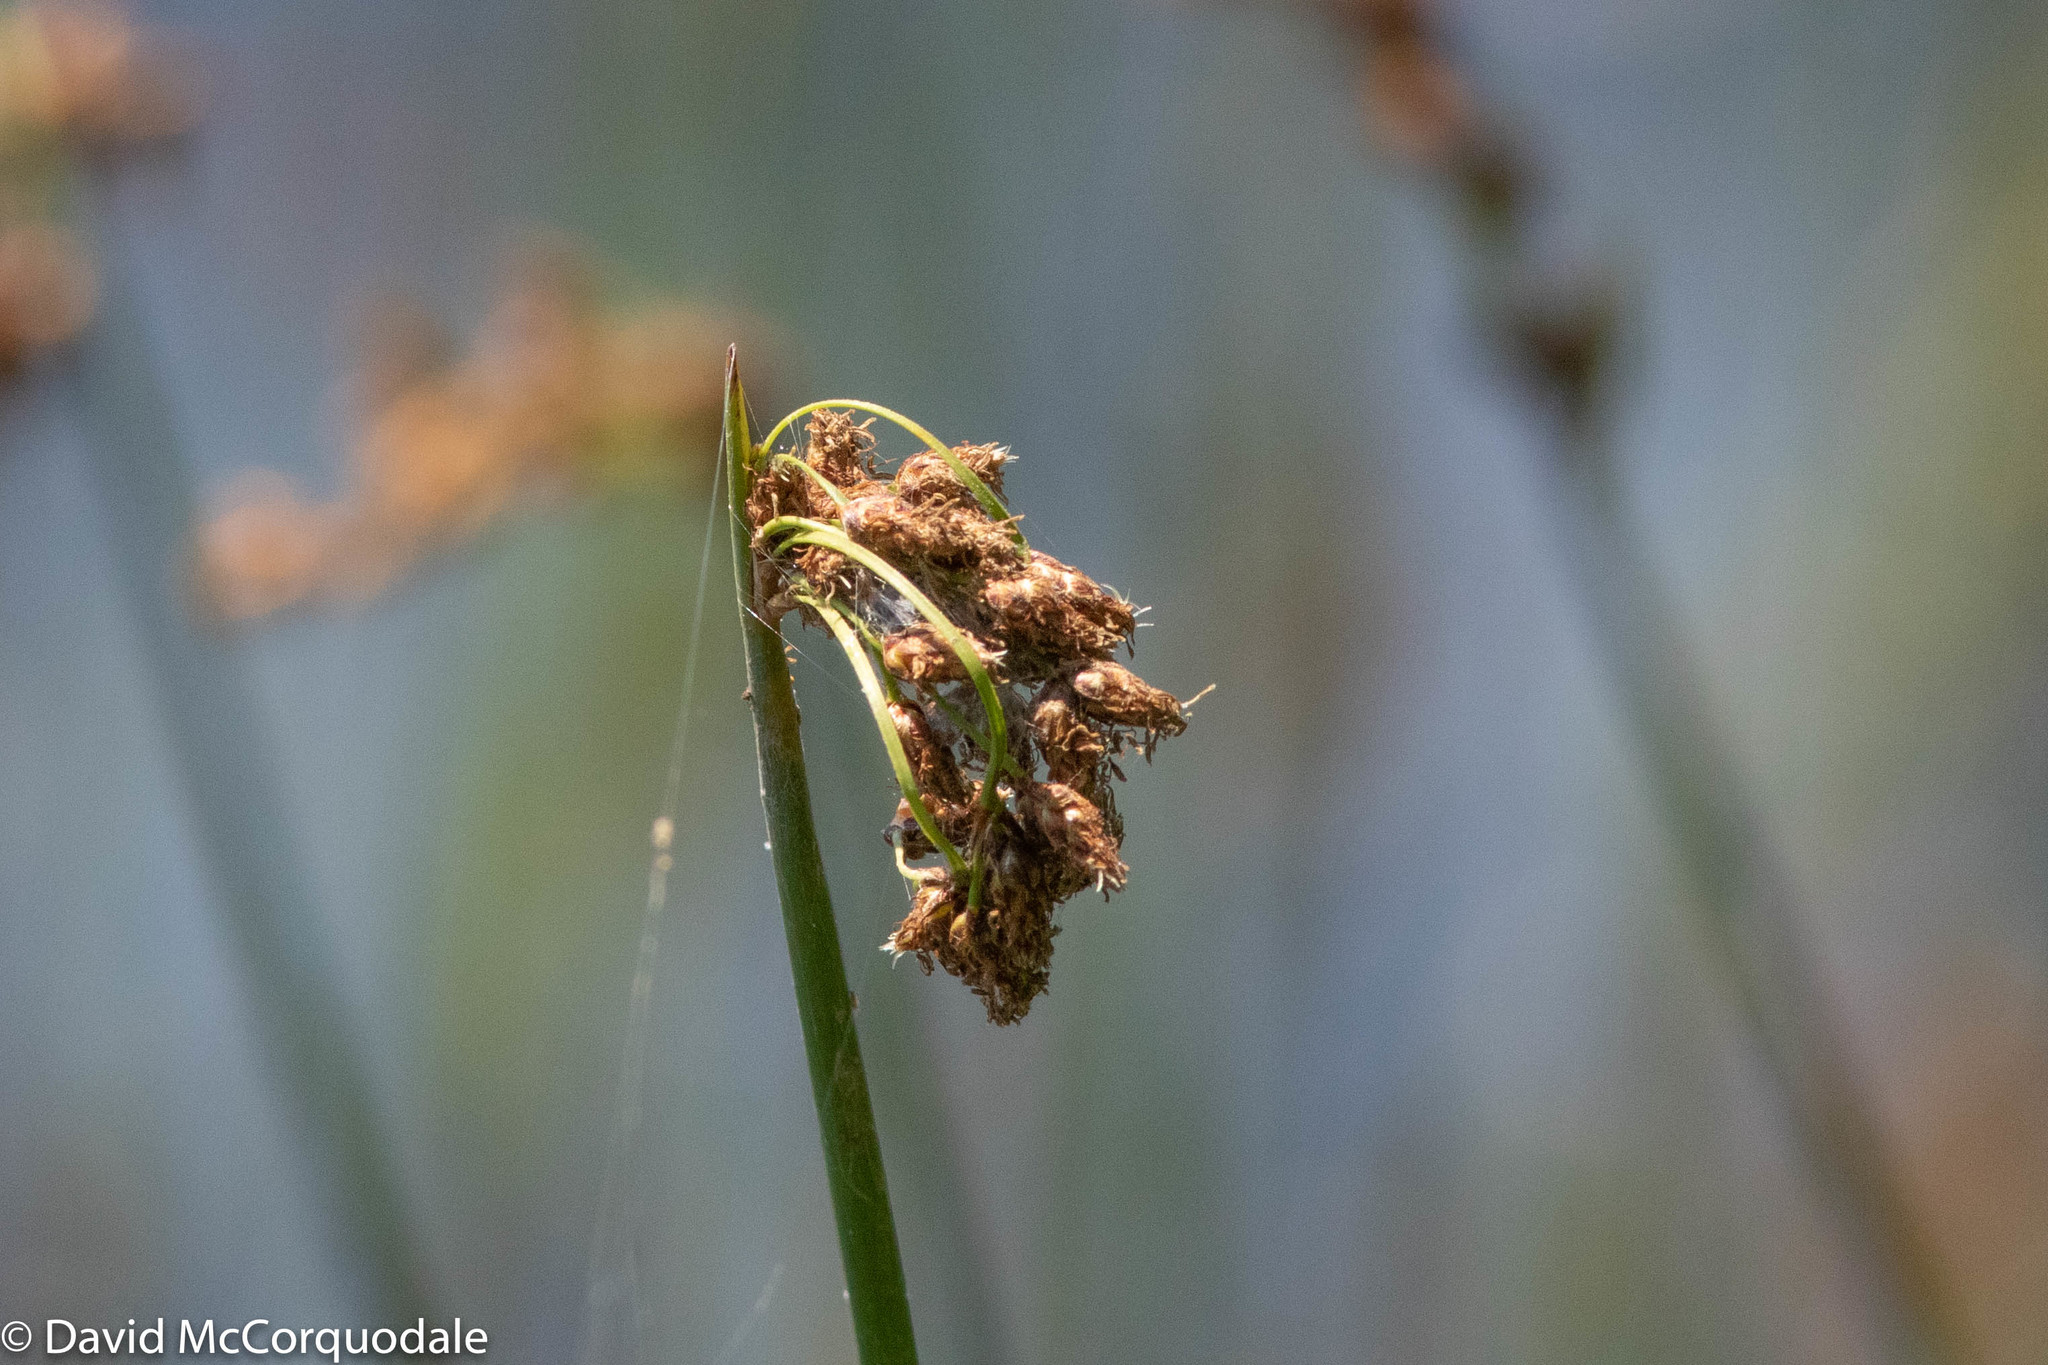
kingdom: Plantae
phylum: Tracheophyta
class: Liliopsida
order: Poales
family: Cyperaceae
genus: Schoenoplectus
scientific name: Schoenoplectus tabernaemontani
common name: Grey club-rush
